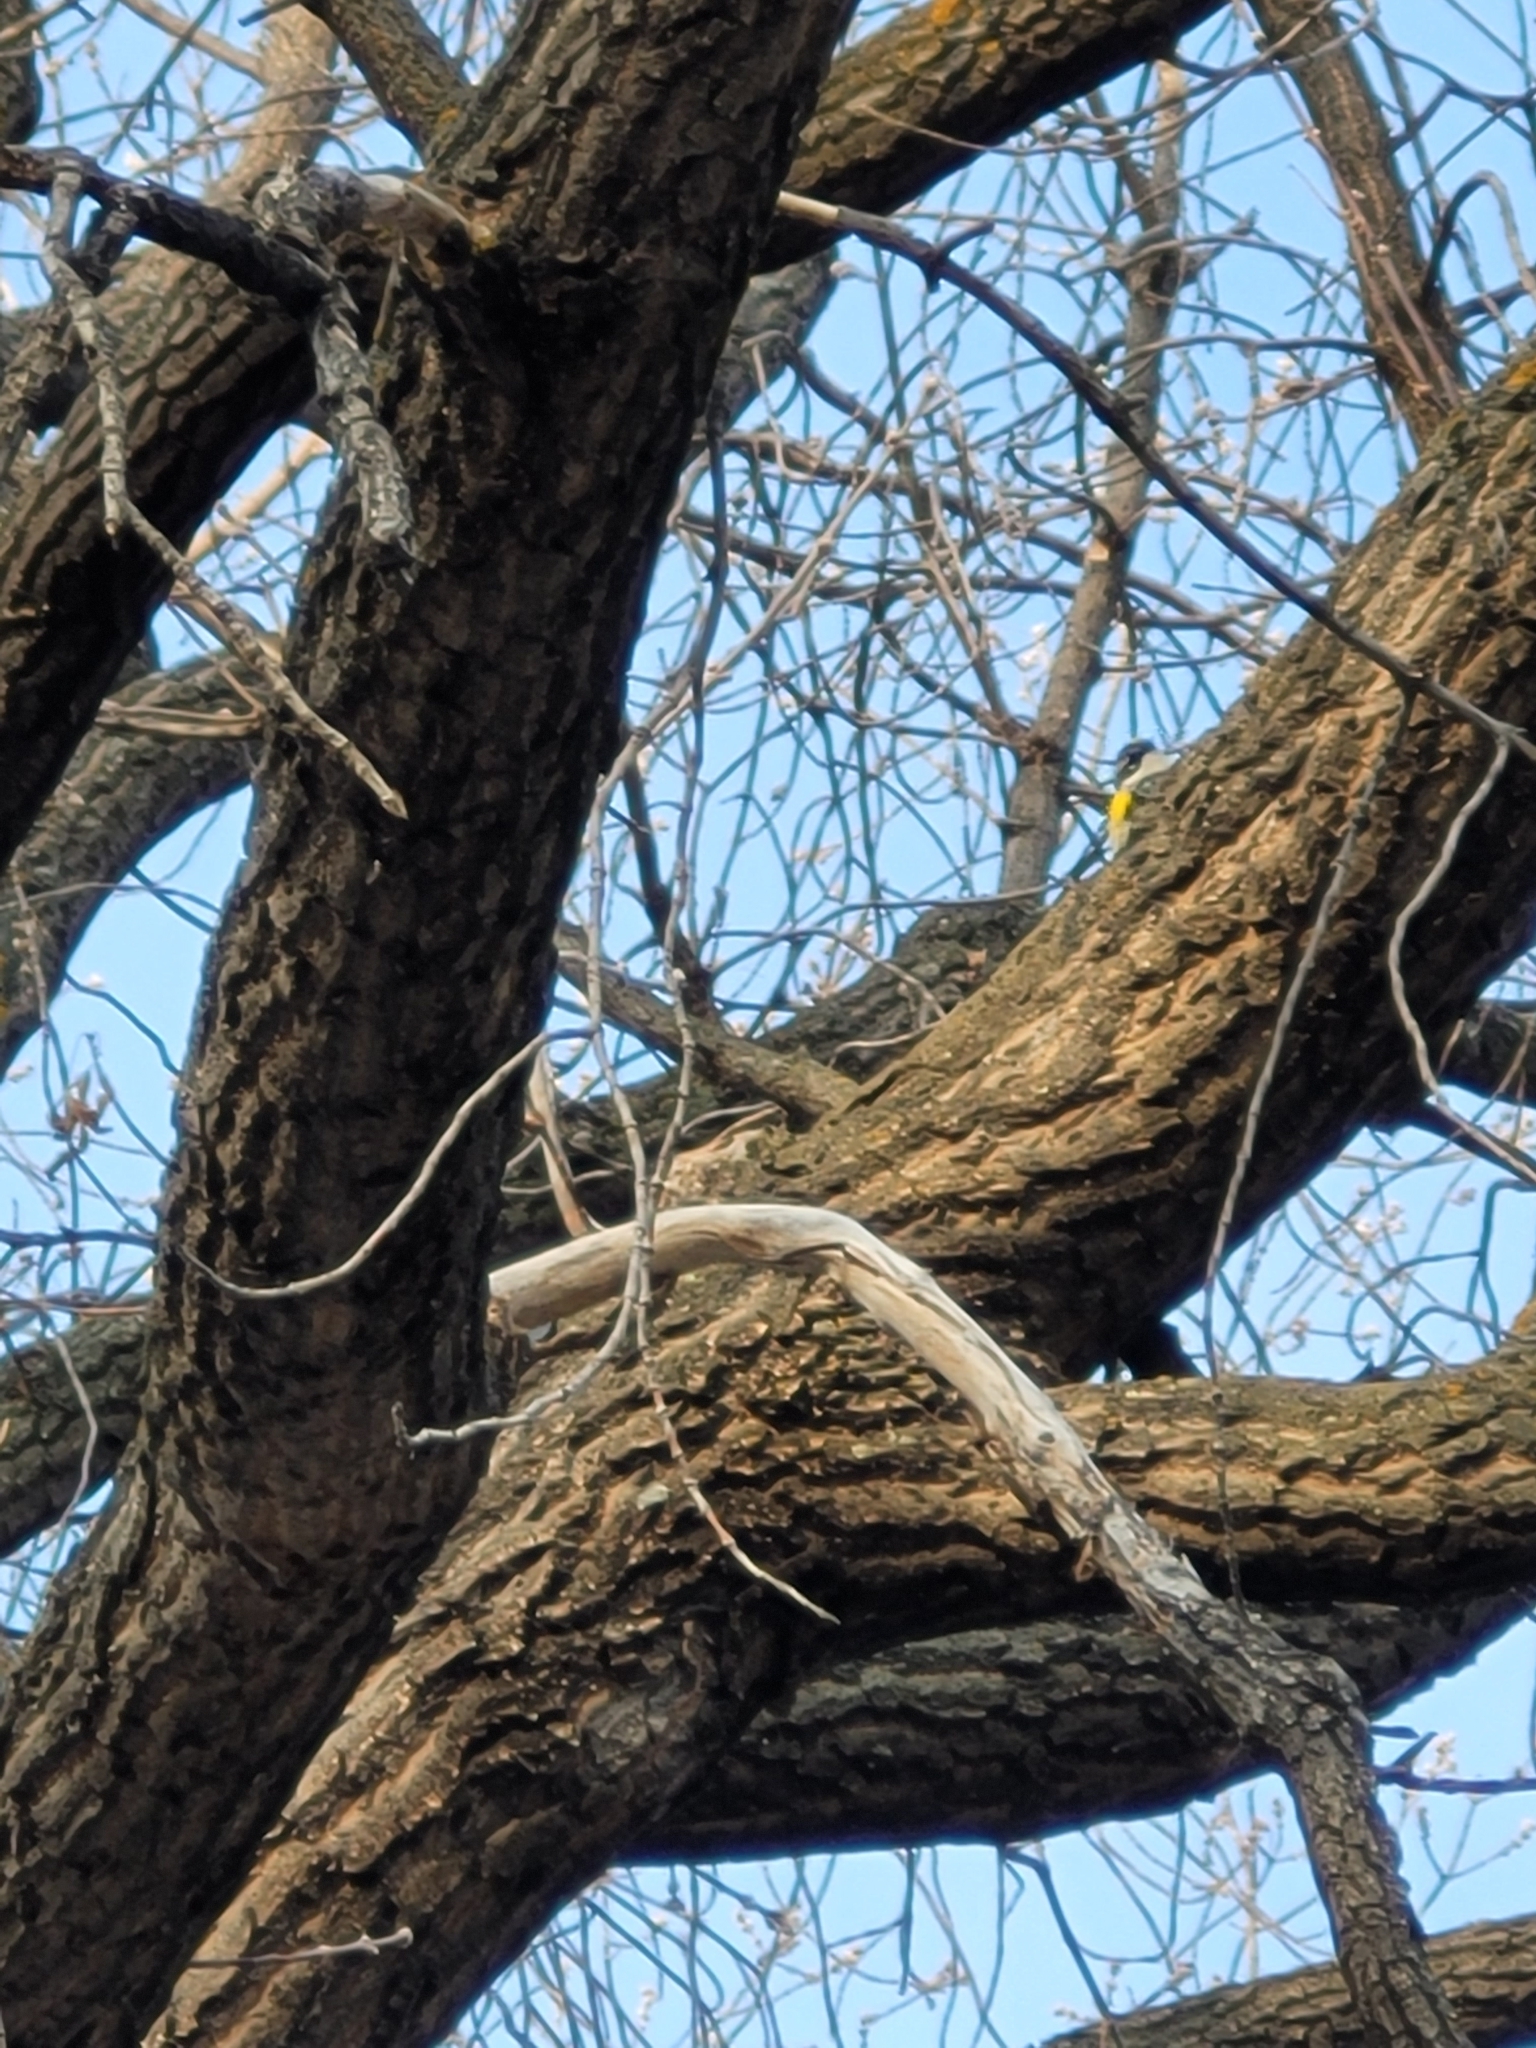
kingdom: Animalia
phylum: Chordata
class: Aves
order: Passeriformes
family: Parulidae
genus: Setophaga
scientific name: Setophaga coronata
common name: Myrtle warbler
